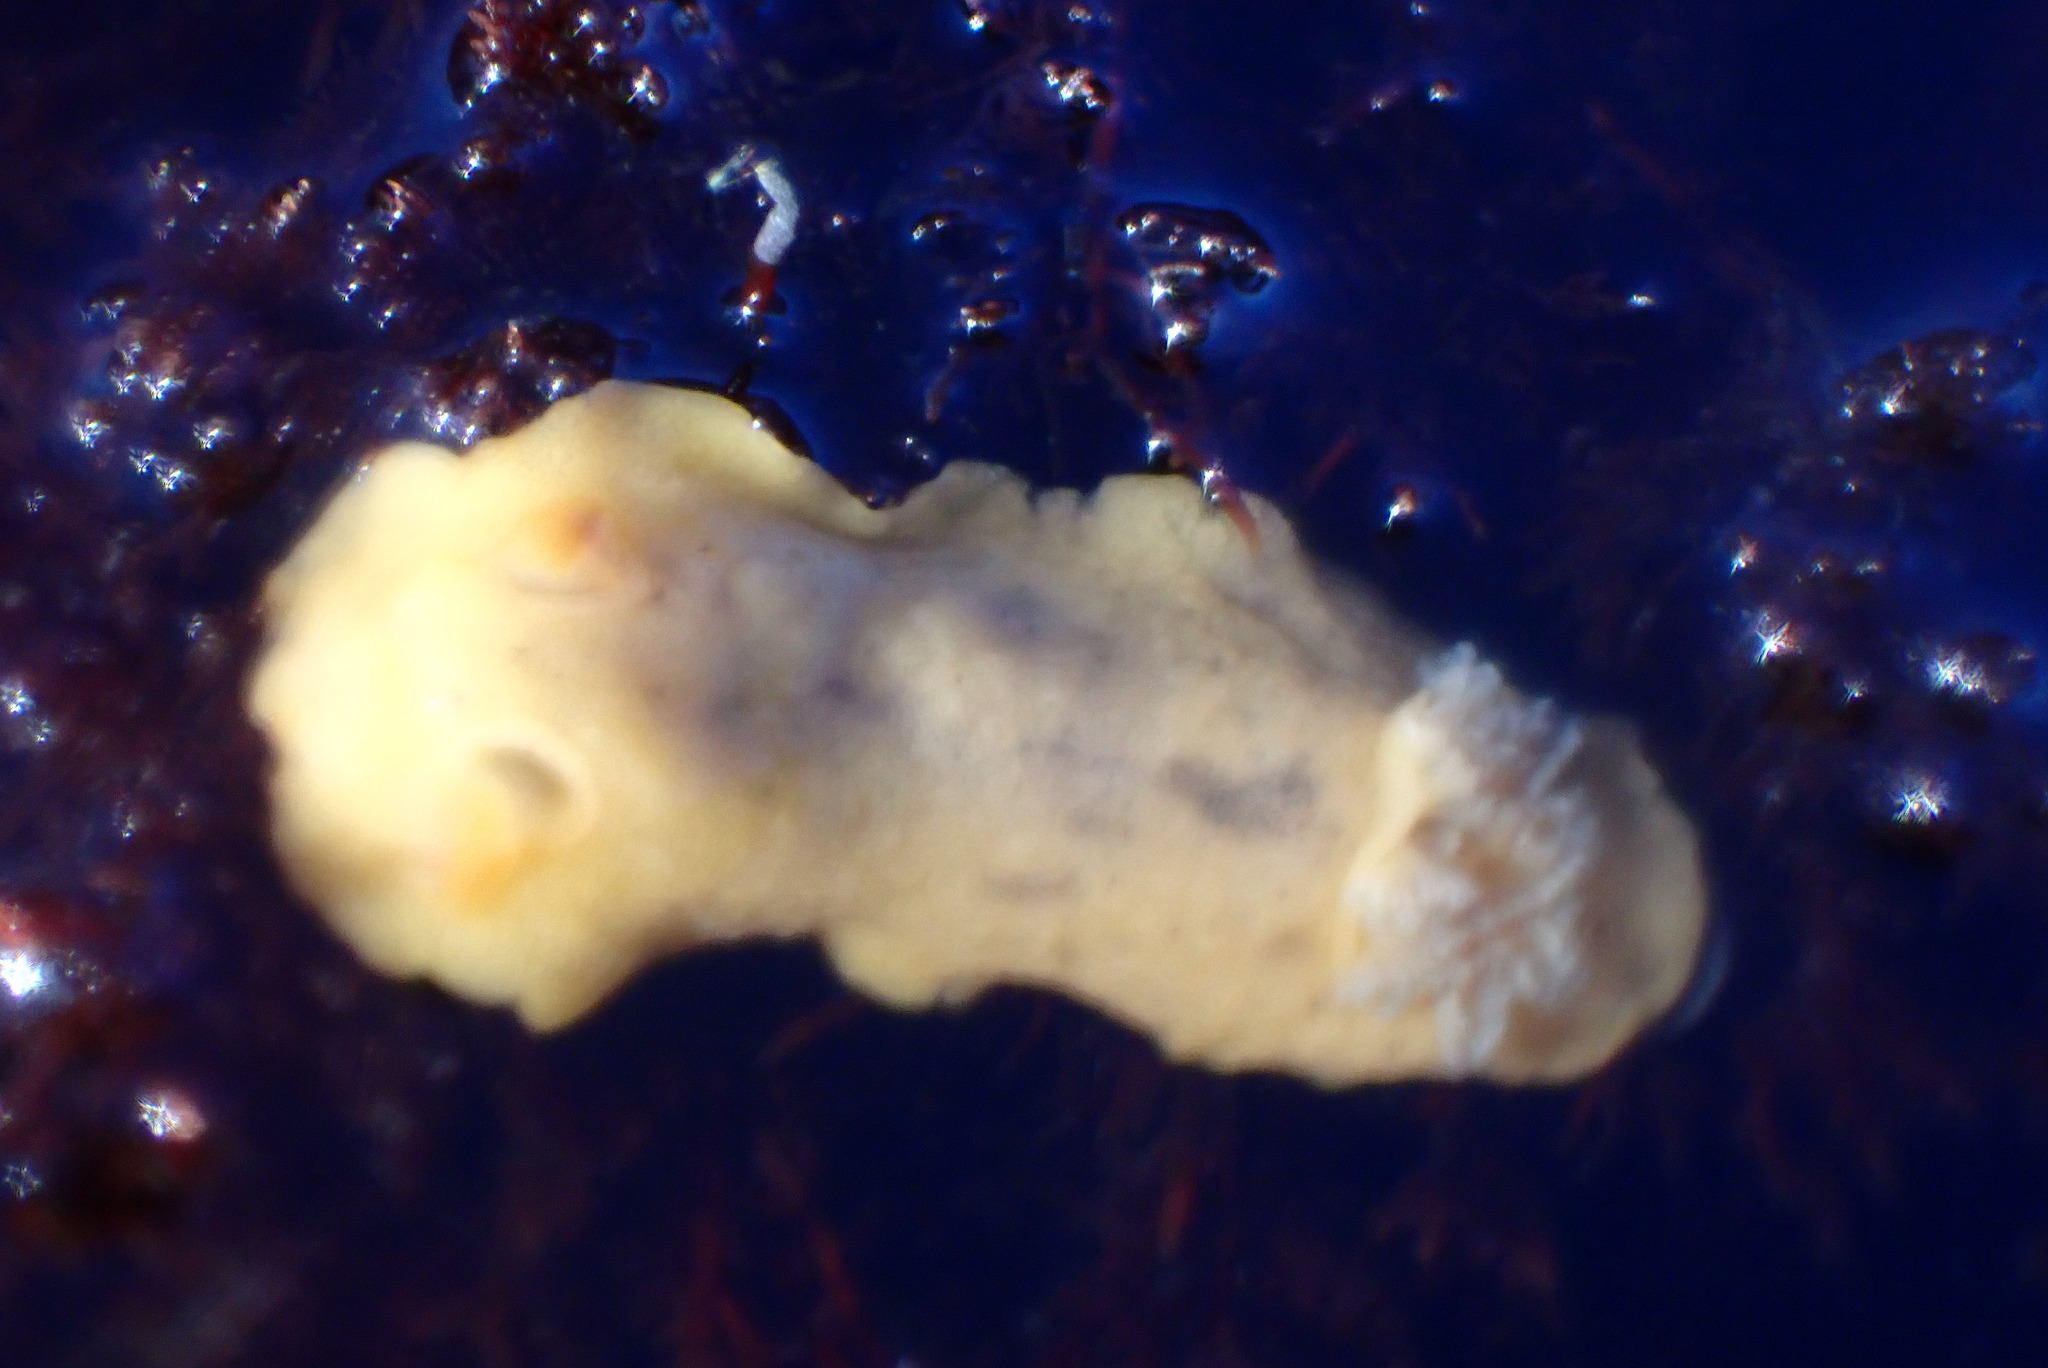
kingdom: Animalia
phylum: Mollusca
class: Gastropoda
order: Nudibranchia
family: Discodorididae
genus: Geitodoris
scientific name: Geitodoris heathi
